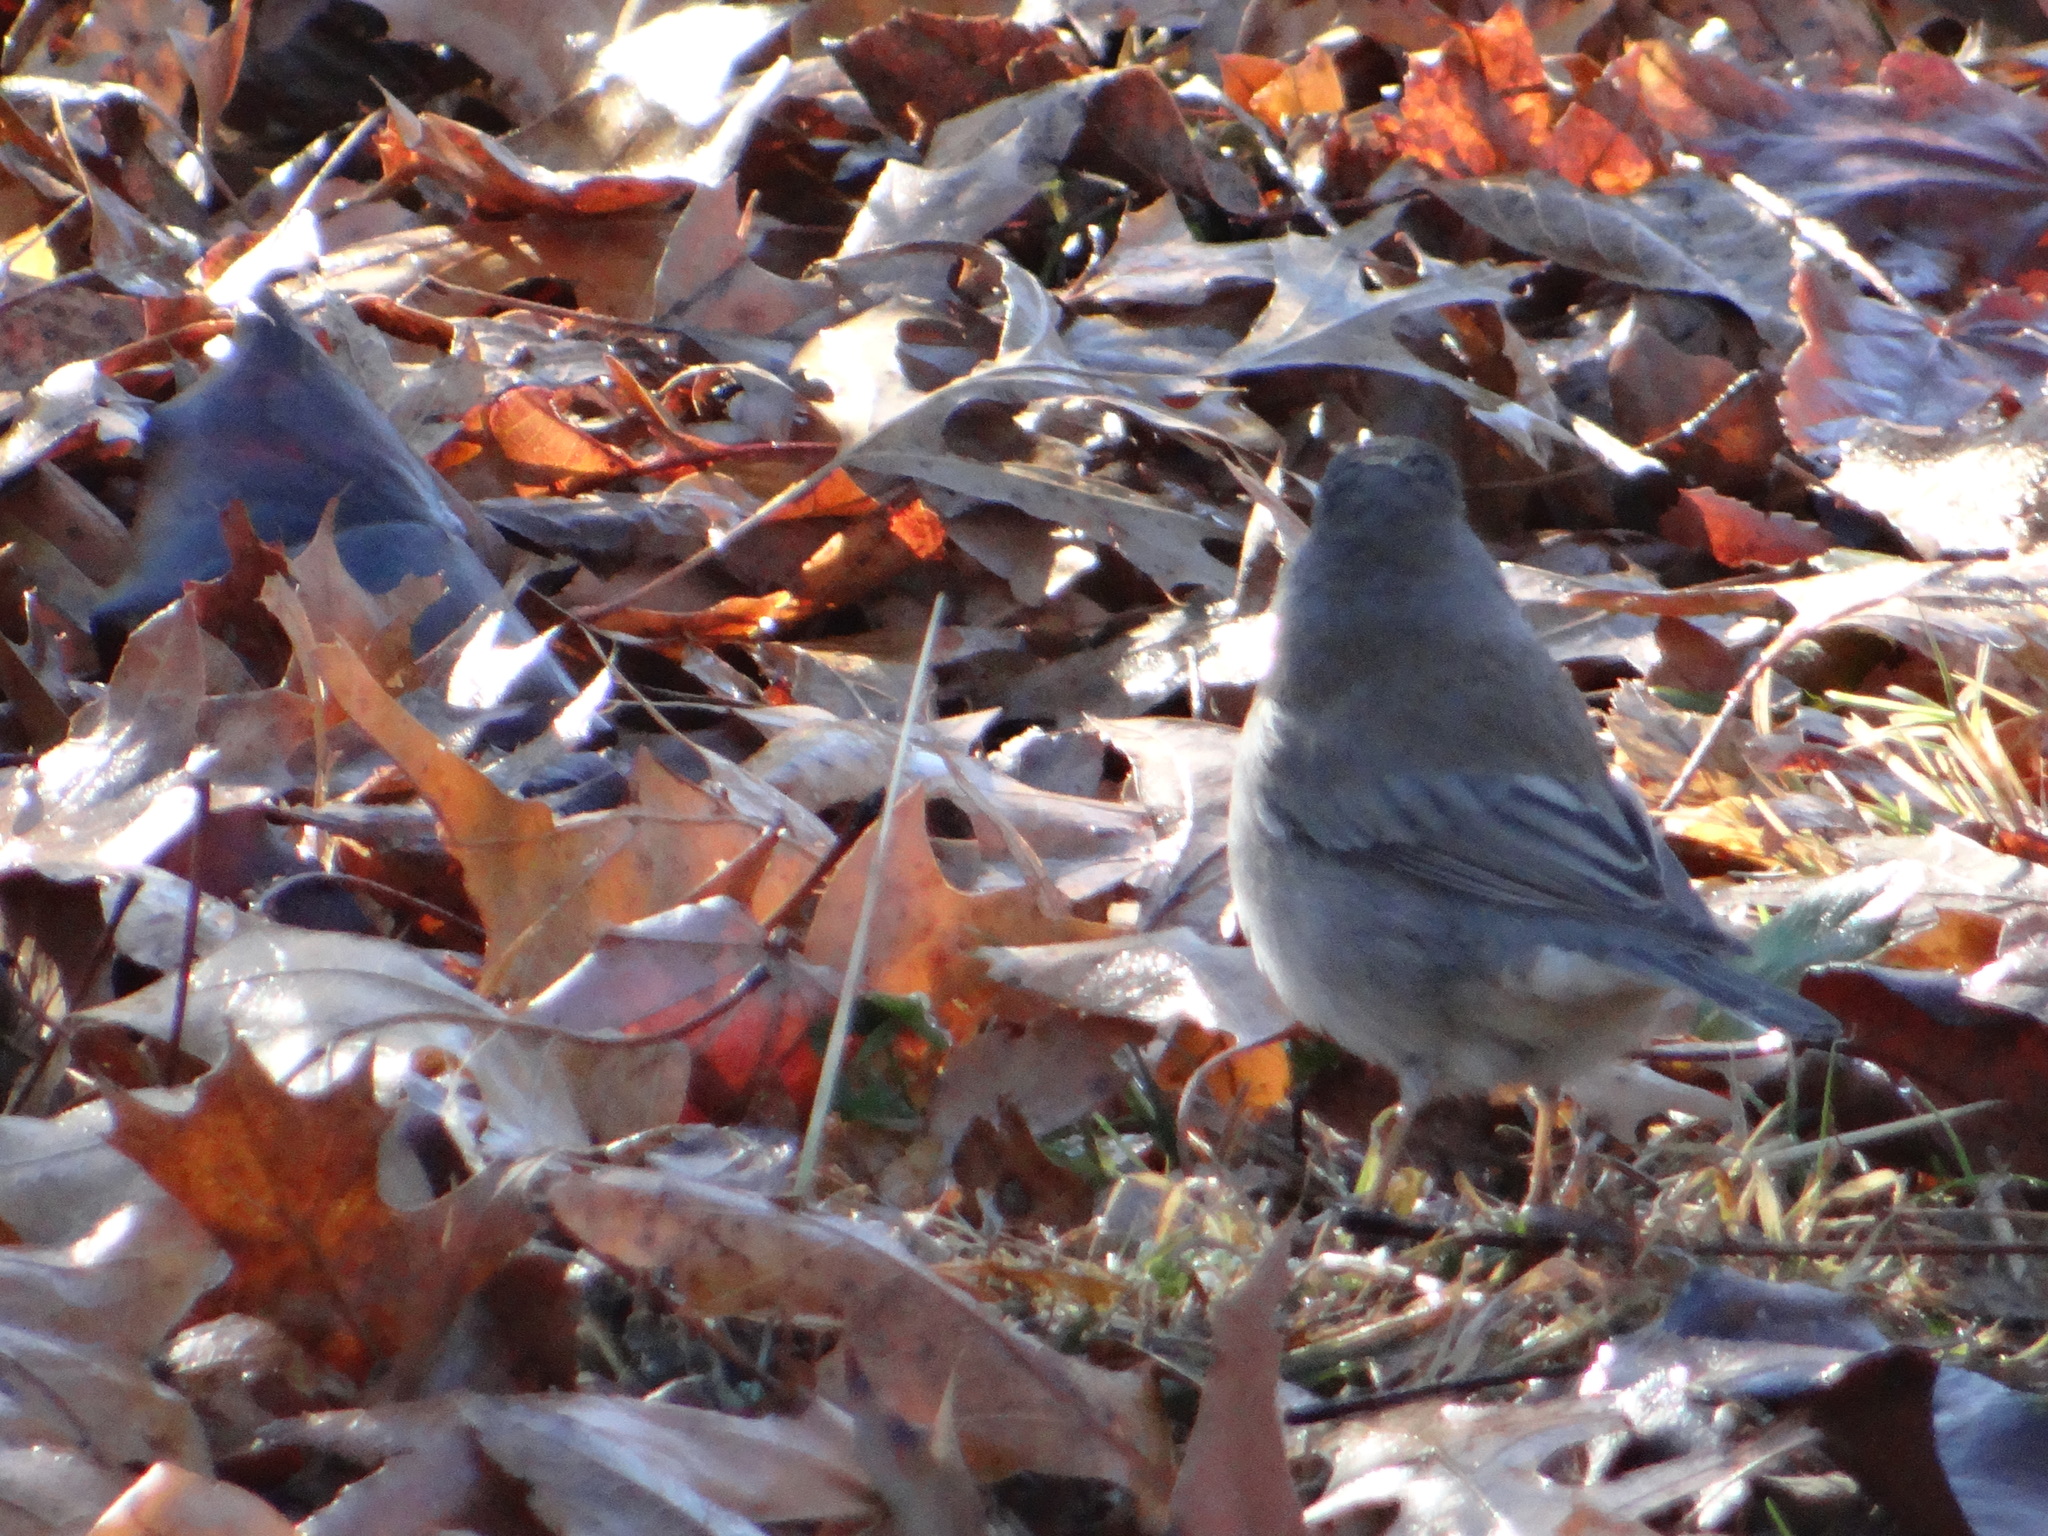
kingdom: Animalia
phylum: Chordata
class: Aves
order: Passeriformes
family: Passerellidae
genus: Junco
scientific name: Junco hyemalis
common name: Dark-eyed junco
